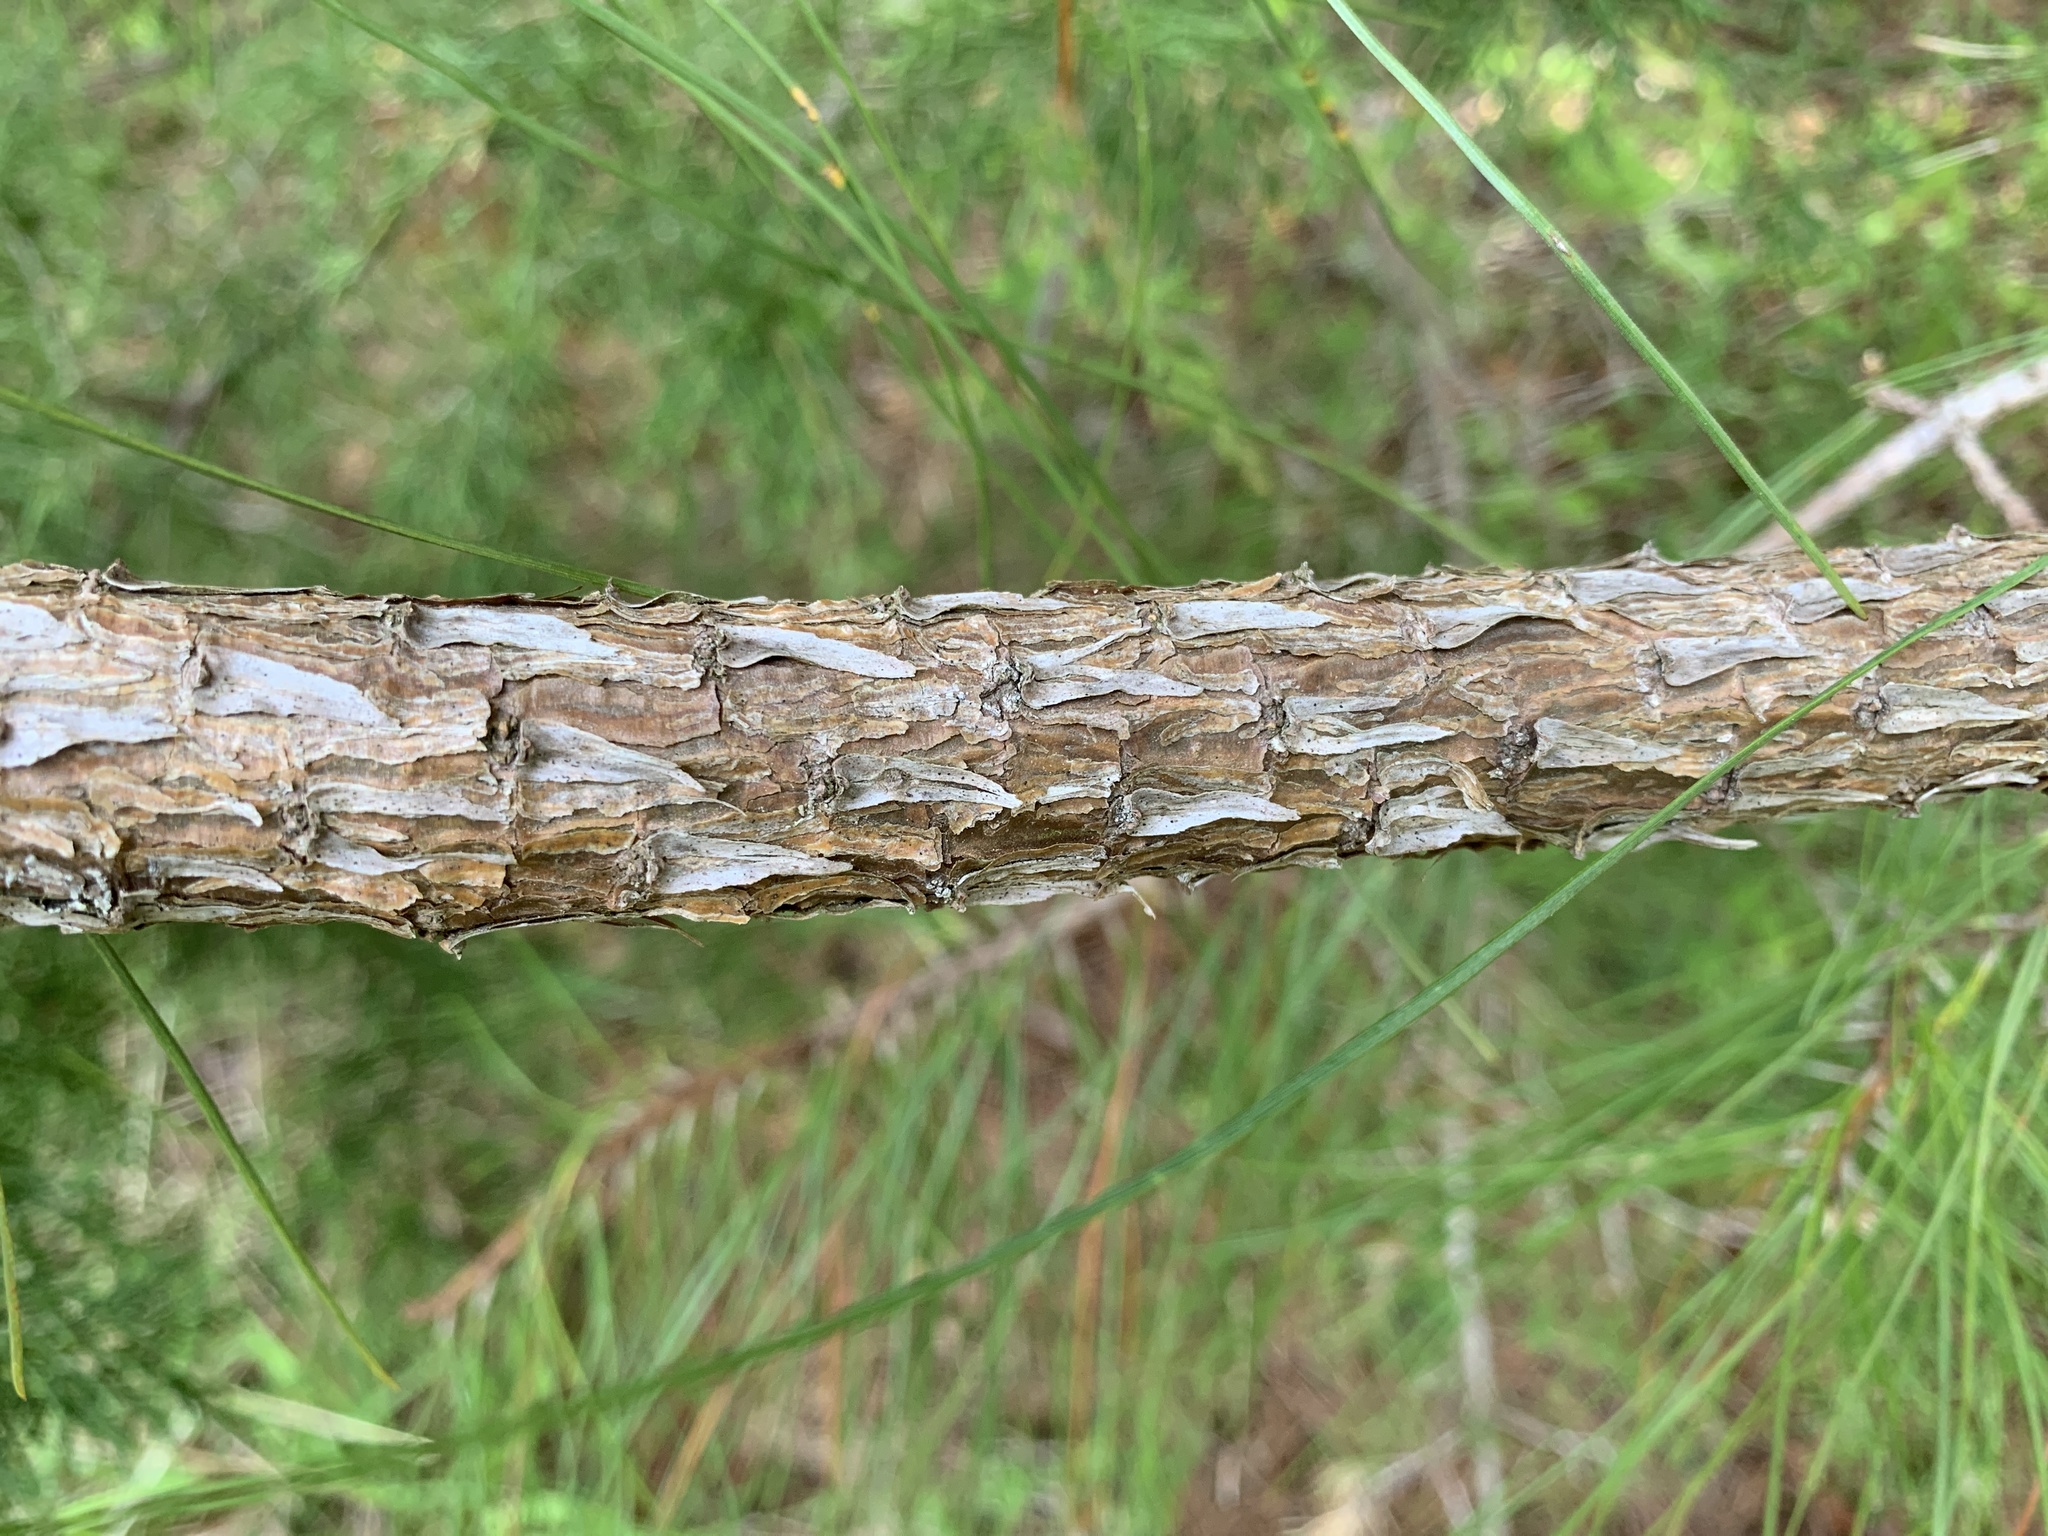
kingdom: Plantae
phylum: Tracheophyta
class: Pinopsida
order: Pinales
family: Pinaceae
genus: Pinus
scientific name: Pinus strobus
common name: Weymouth pine
